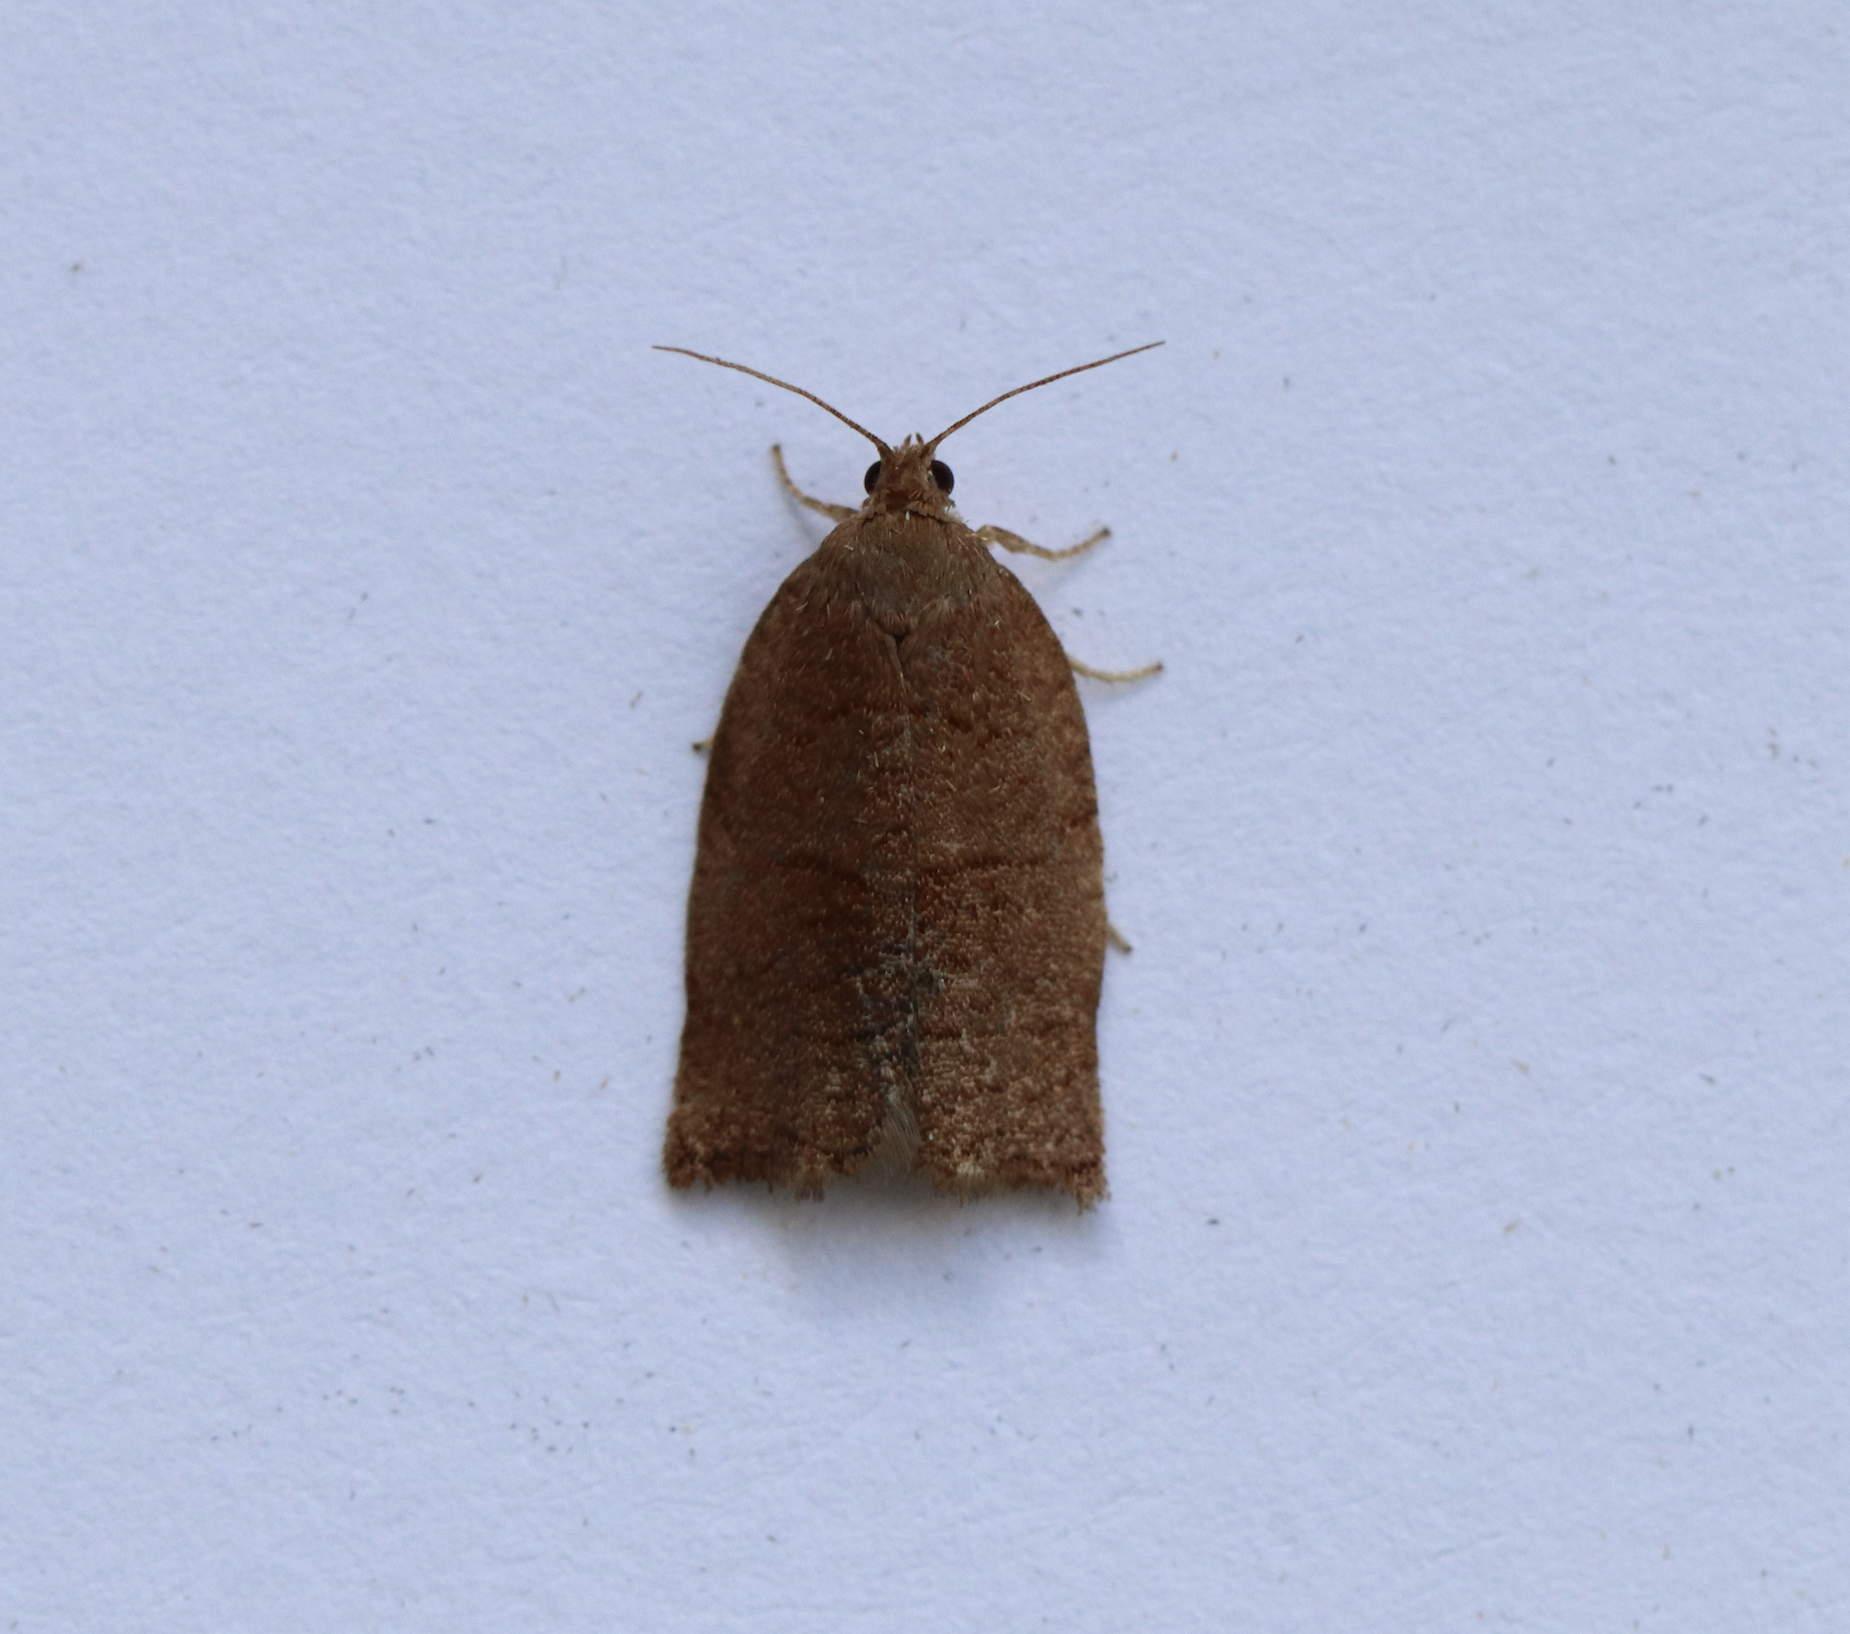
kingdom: Animalia
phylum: Arthropoda
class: Insecta
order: Lepidoptera
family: Tortricidae
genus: Archips
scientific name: Archips rosana
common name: Rose tortrix
